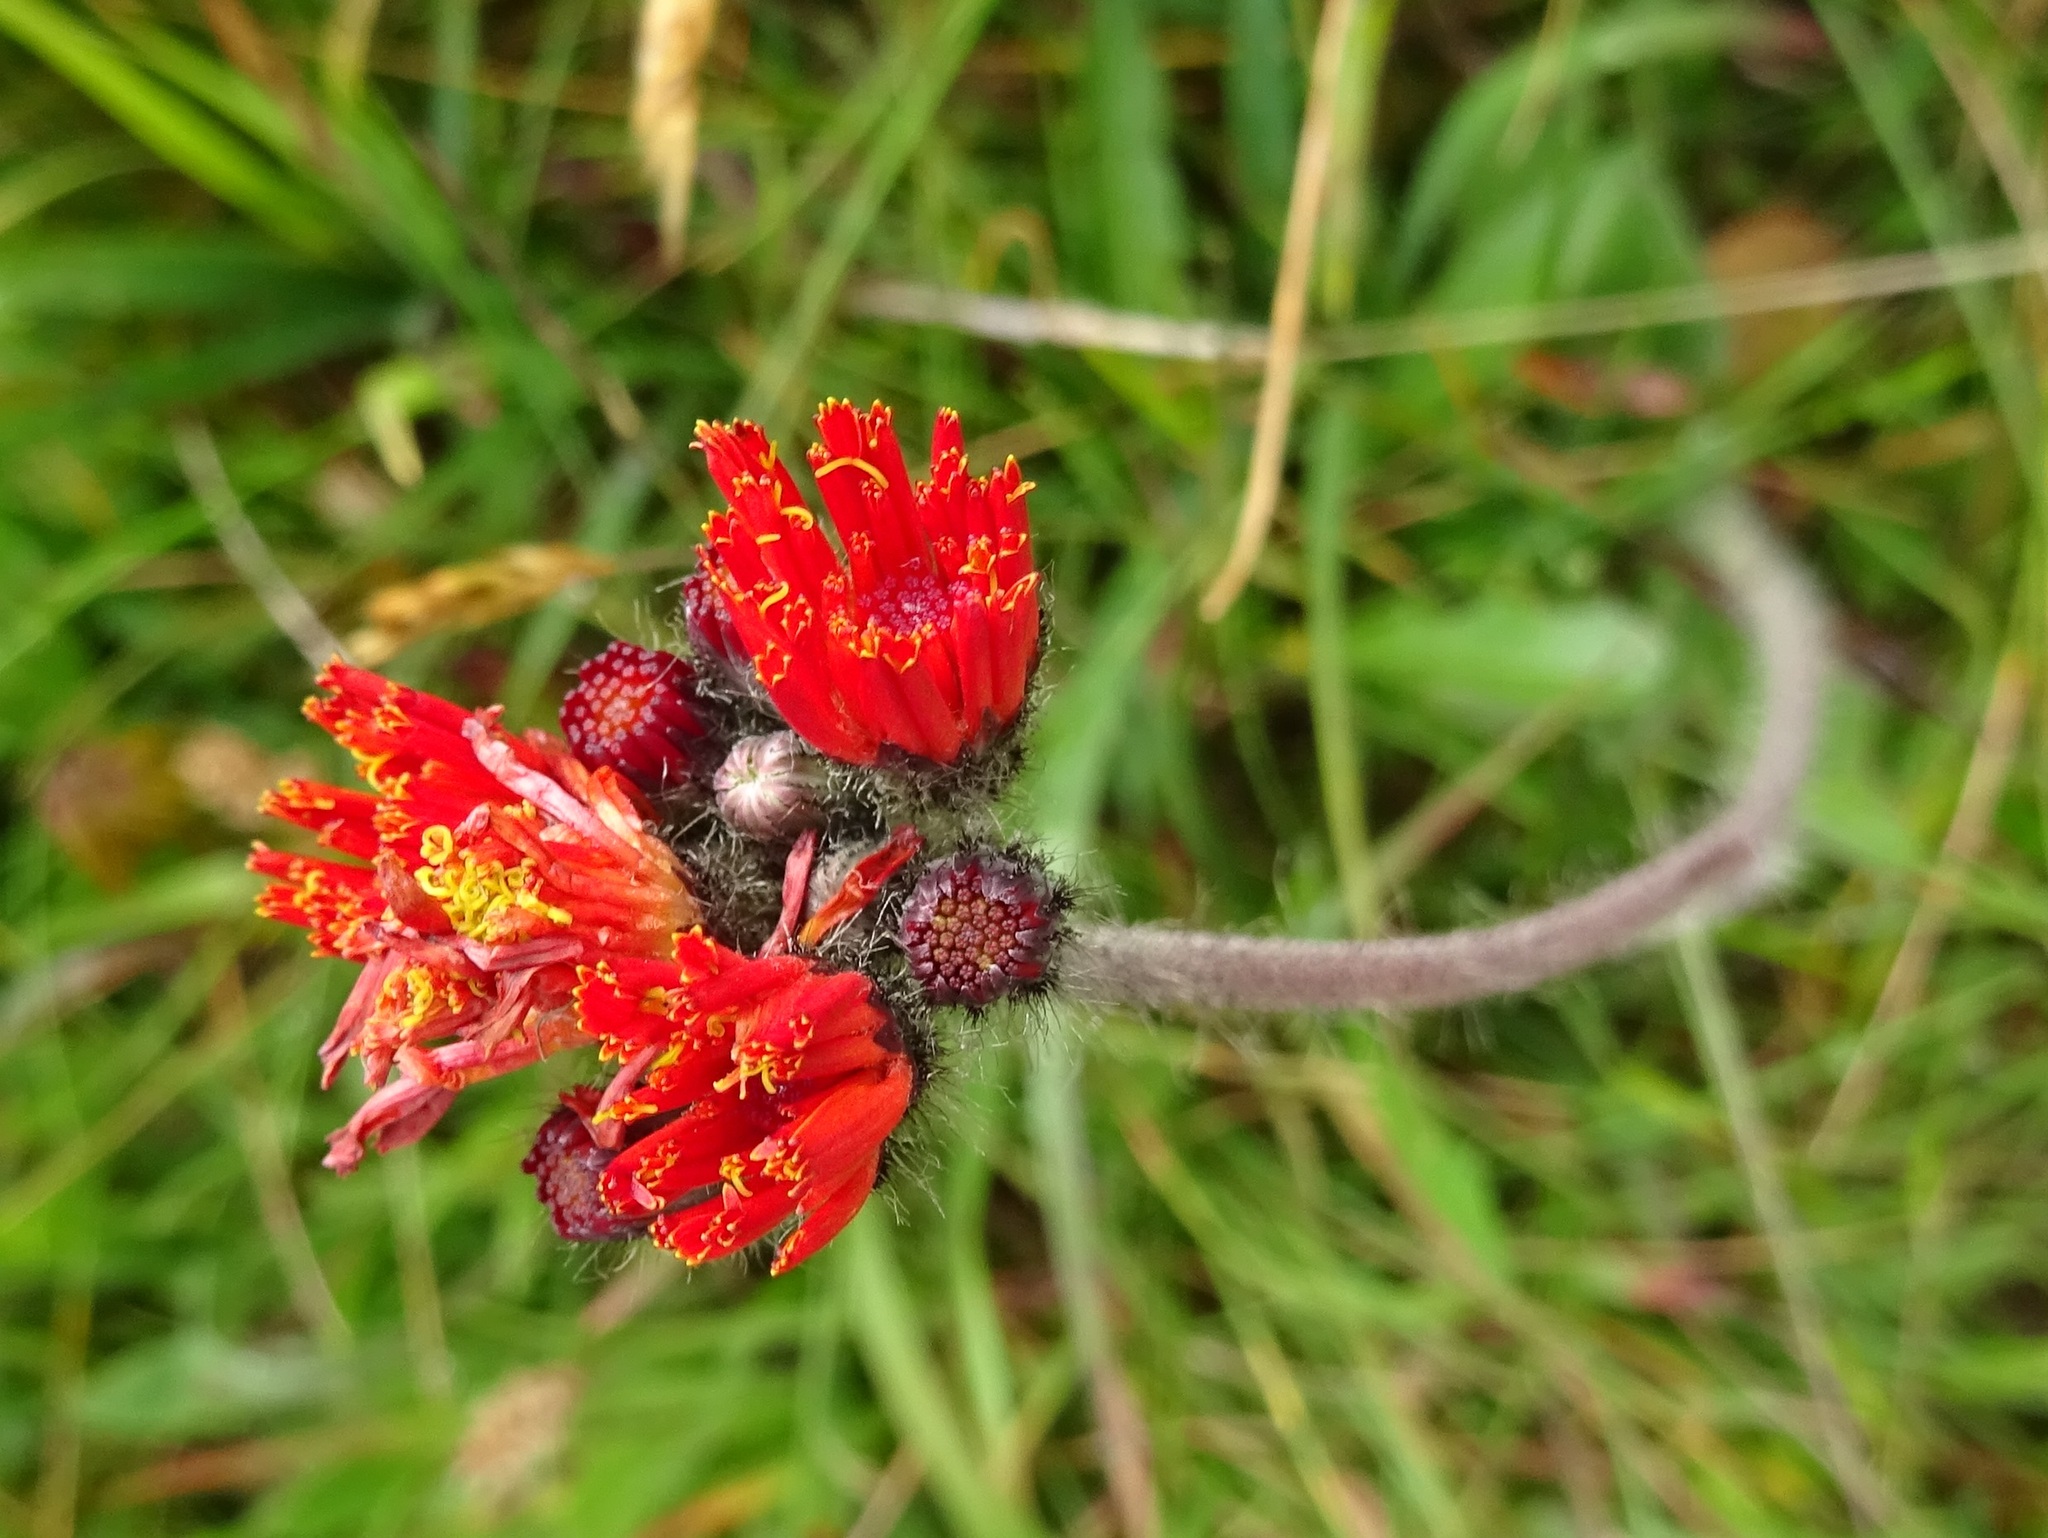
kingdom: Plantae
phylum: Tracheophyta
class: Magnoliopsida
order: Asterales
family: Asteraceae
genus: Pilosella
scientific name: Pilosella aurantiaca
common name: Fox-and-cubs
